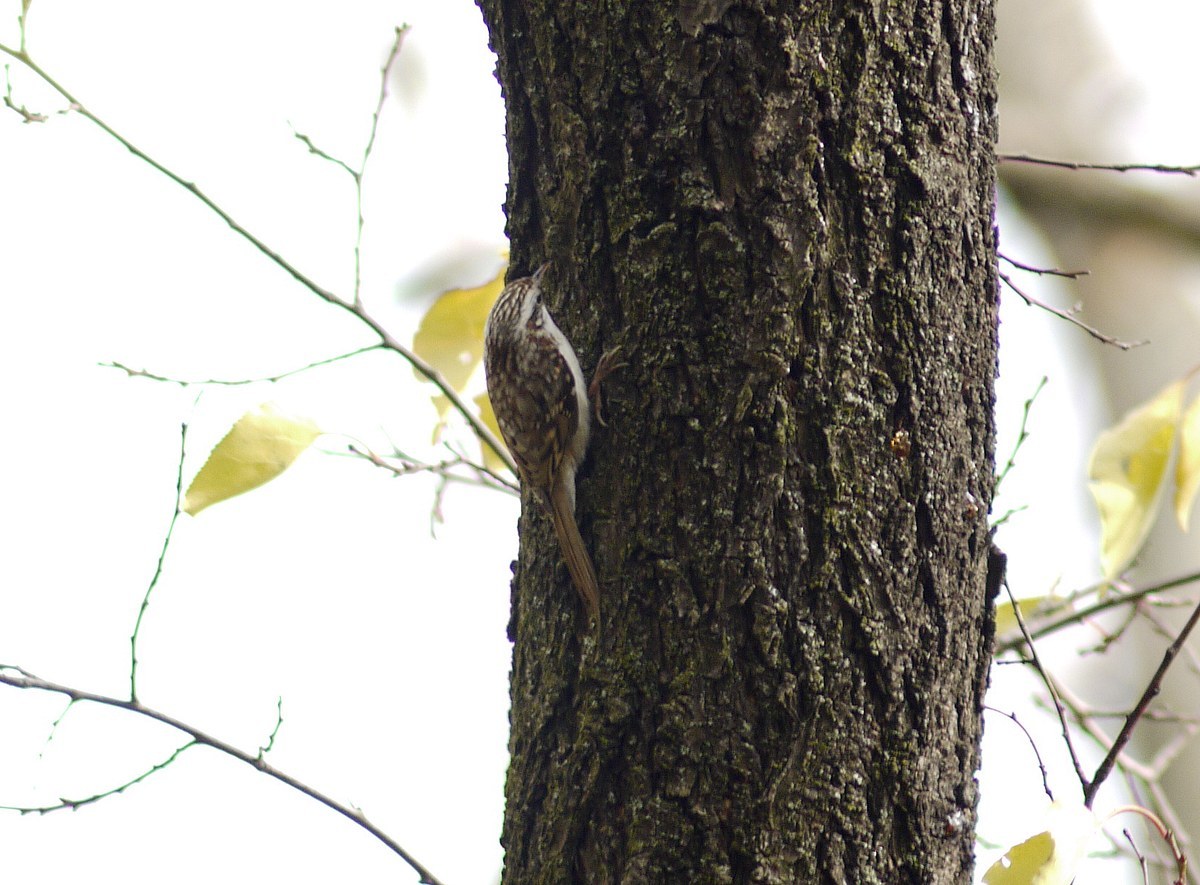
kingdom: Animalia
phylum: Chordata
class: Aves
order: Passeriformes
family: Certhiidae
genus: Certhia
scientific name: Certhia familiaris
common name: Eurasian treecreeper
